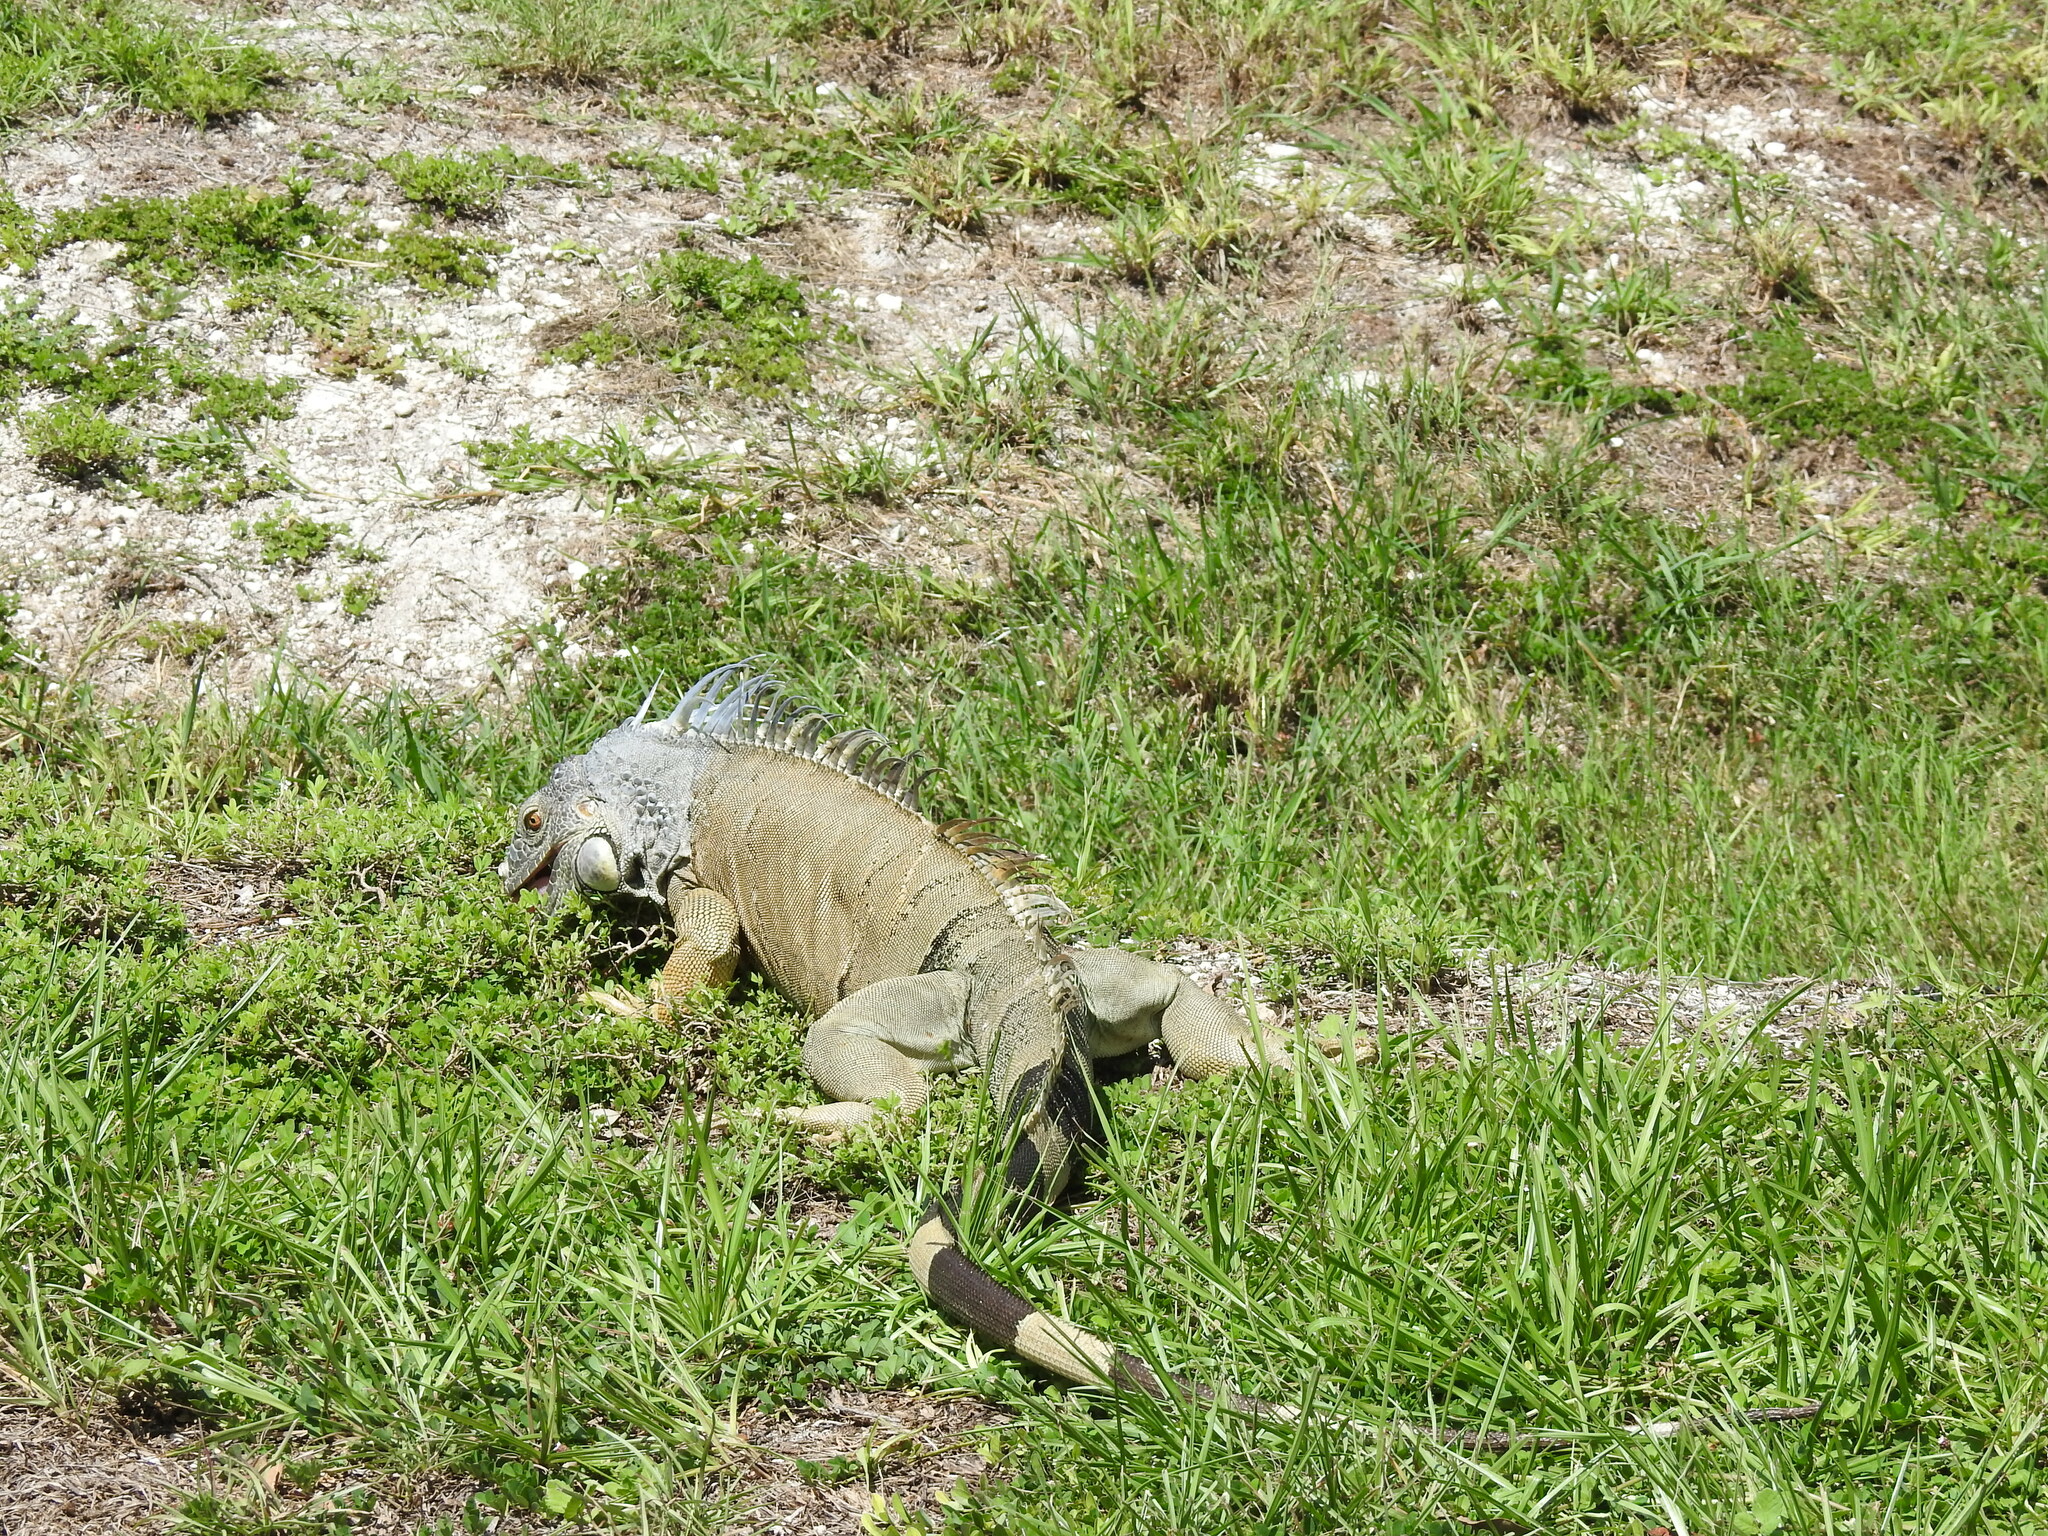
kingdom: Animalia
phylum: Chordata
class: Squamata
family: Iguanidae
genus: Iguana
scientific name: Iguana iguana
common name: Green iguana
